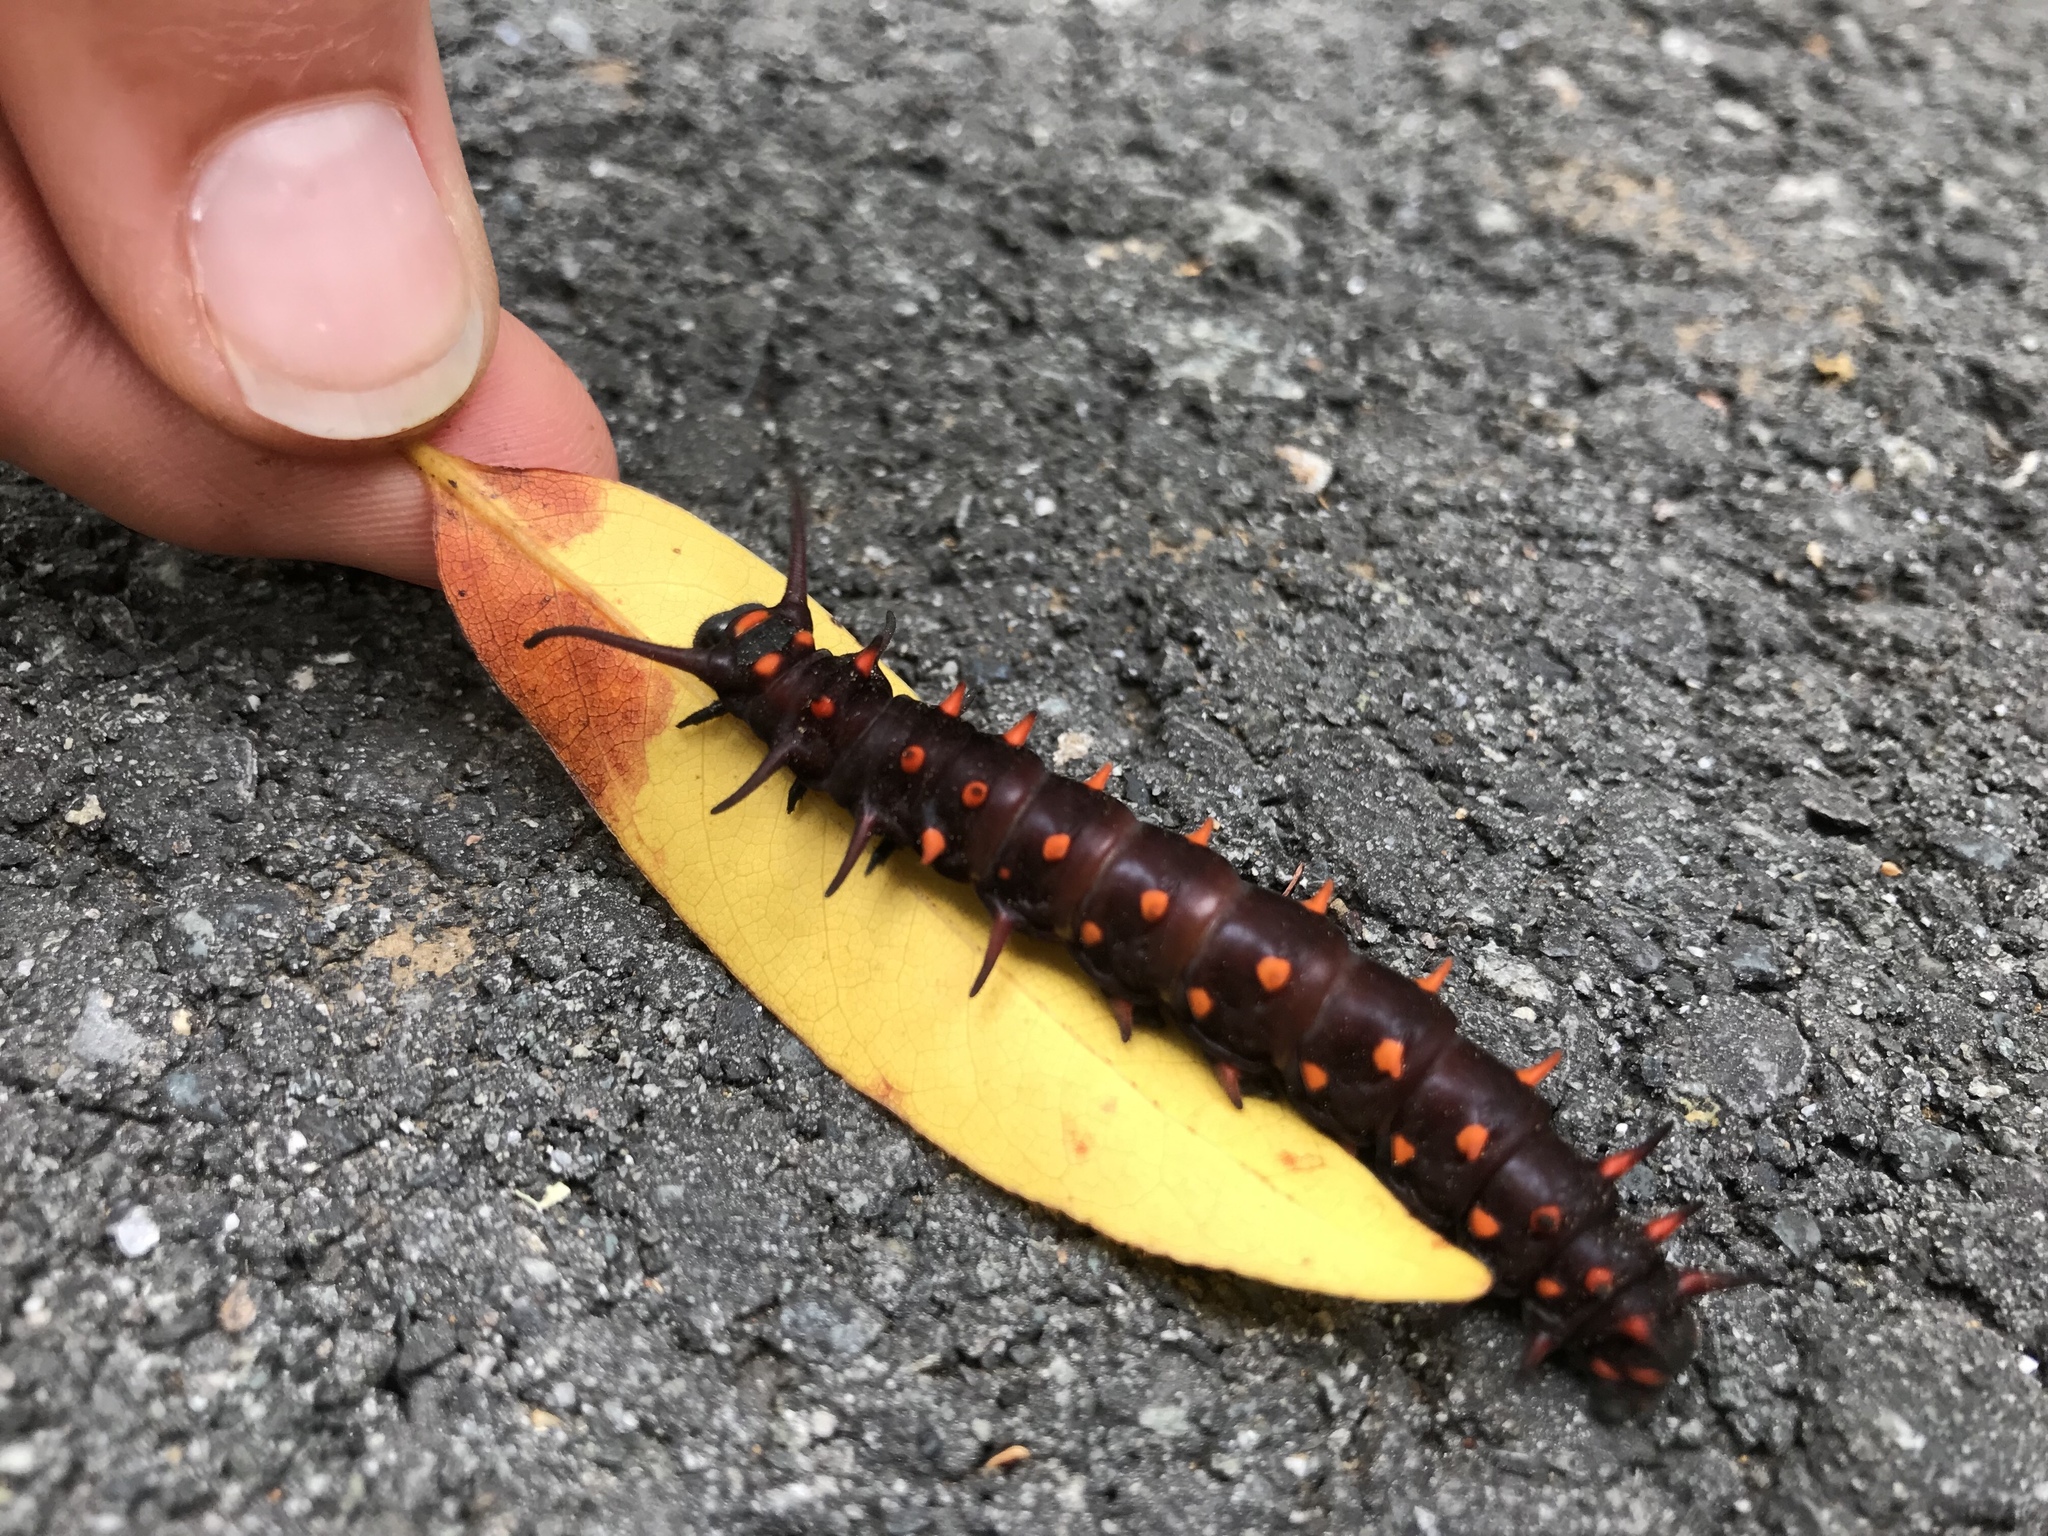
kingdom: Animalia
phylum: Arthropoda
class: Insecta
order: Lepidoptera
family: Papilionidae
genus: Battus
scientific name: Battus philenor
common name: Pipevine swallowtail
